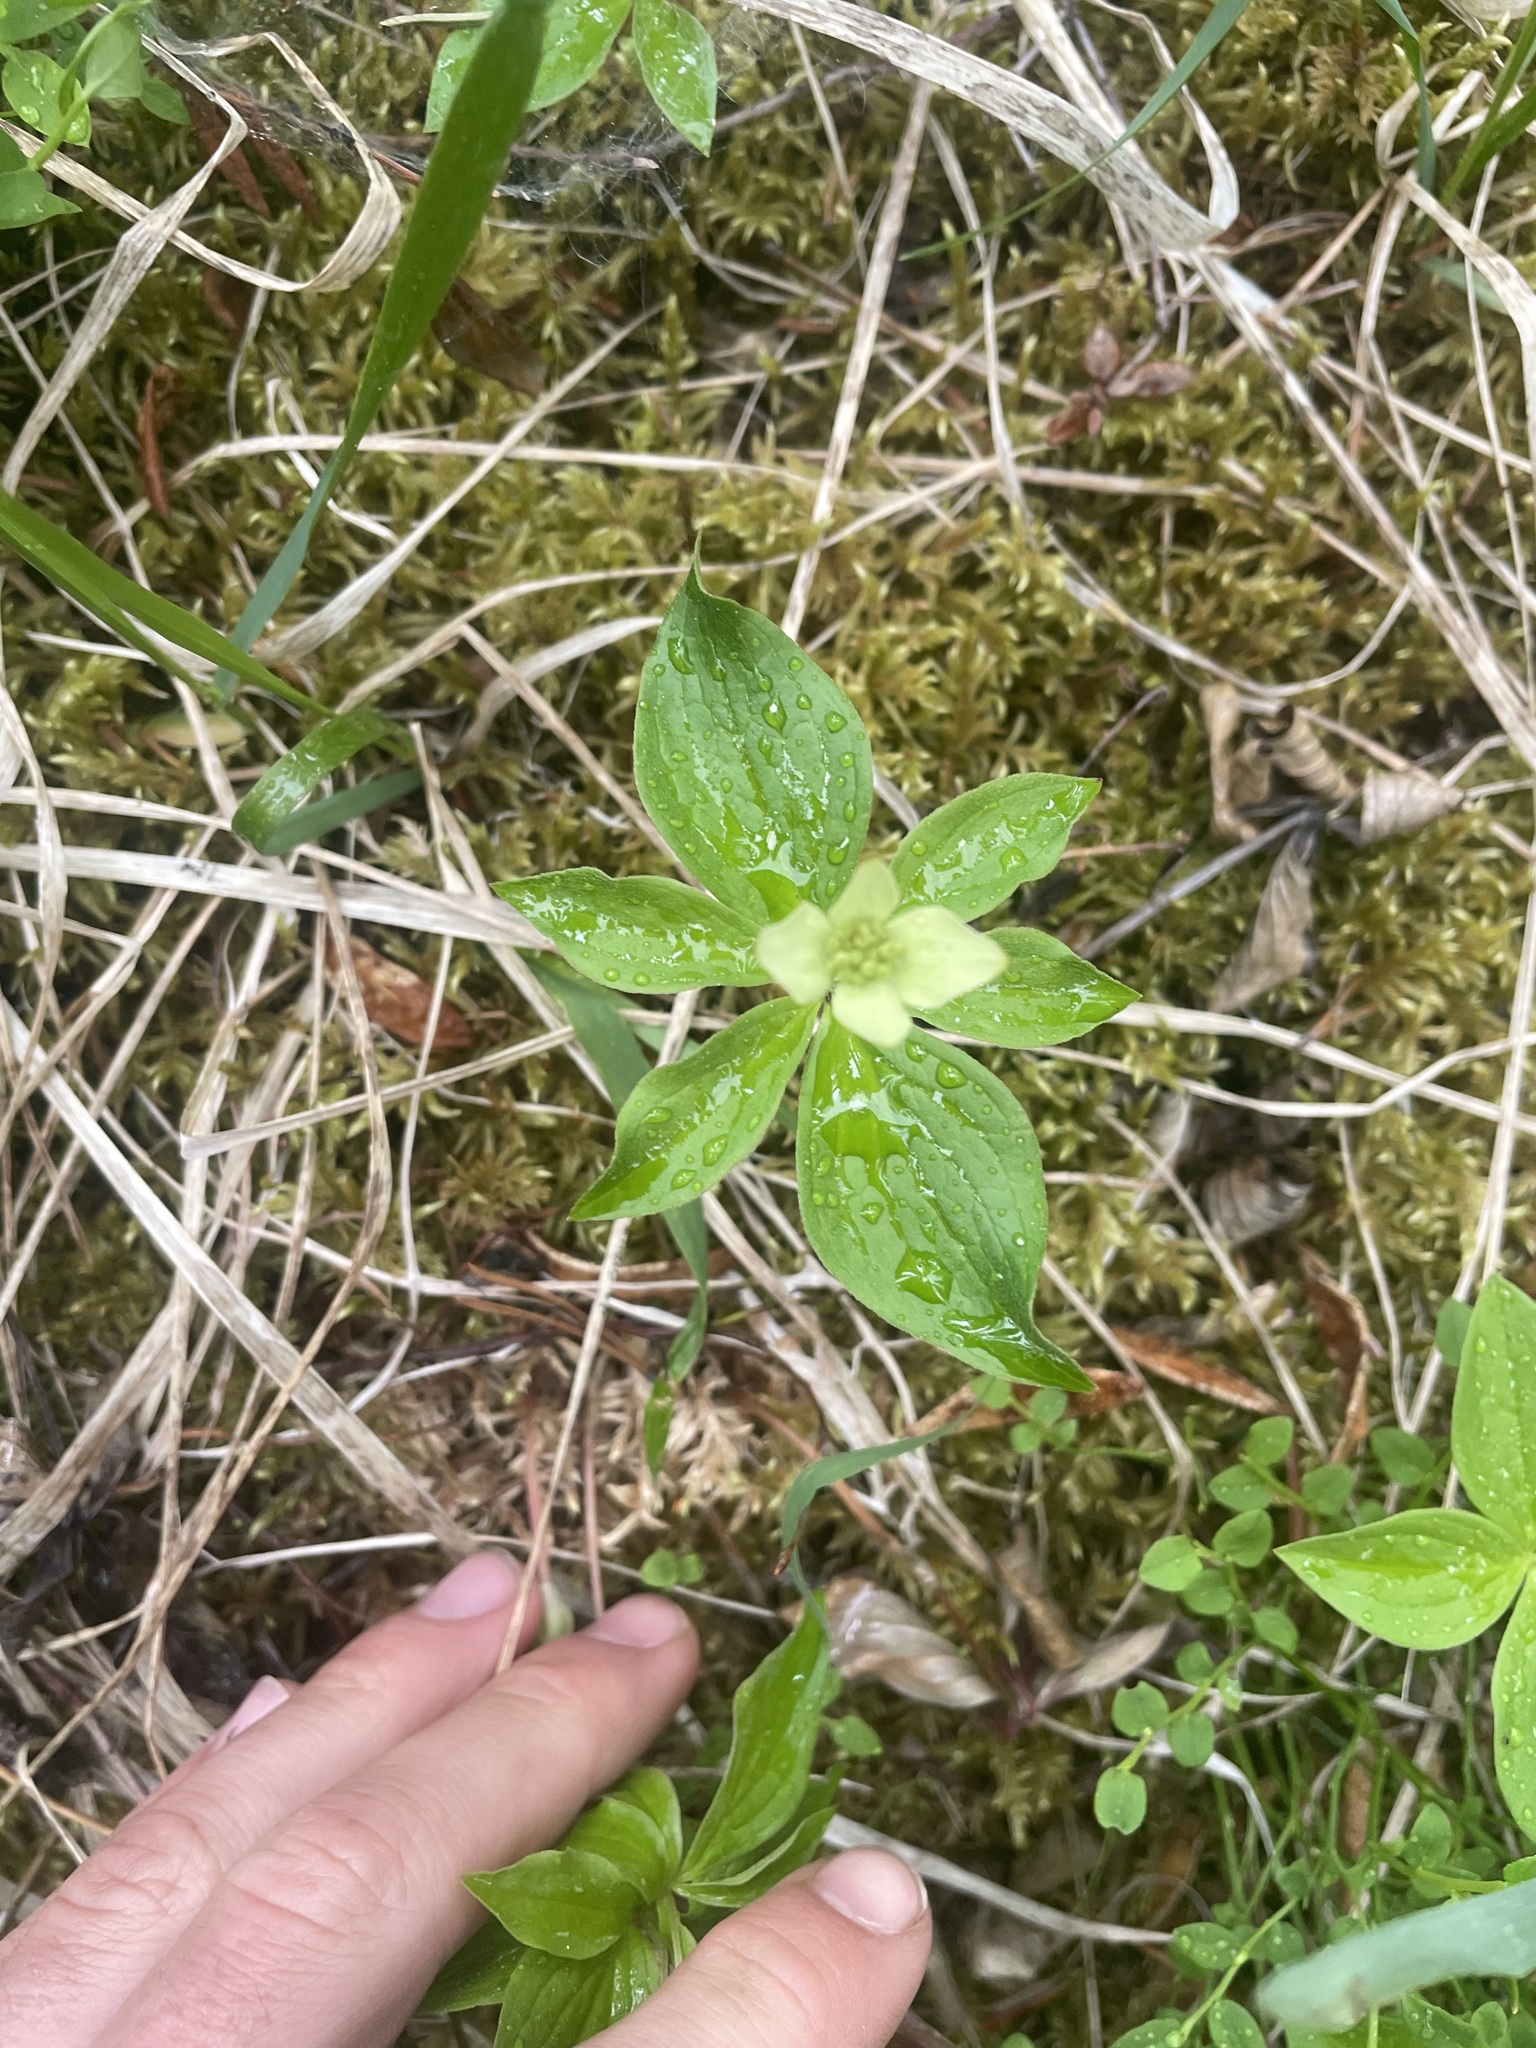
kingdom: Plantae
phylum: Tracheophyta
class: Magnoliopsida
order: Cornales
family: Cornaceae
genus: Cornus
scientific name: Cornus canadensis
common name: Creeping dogwood
